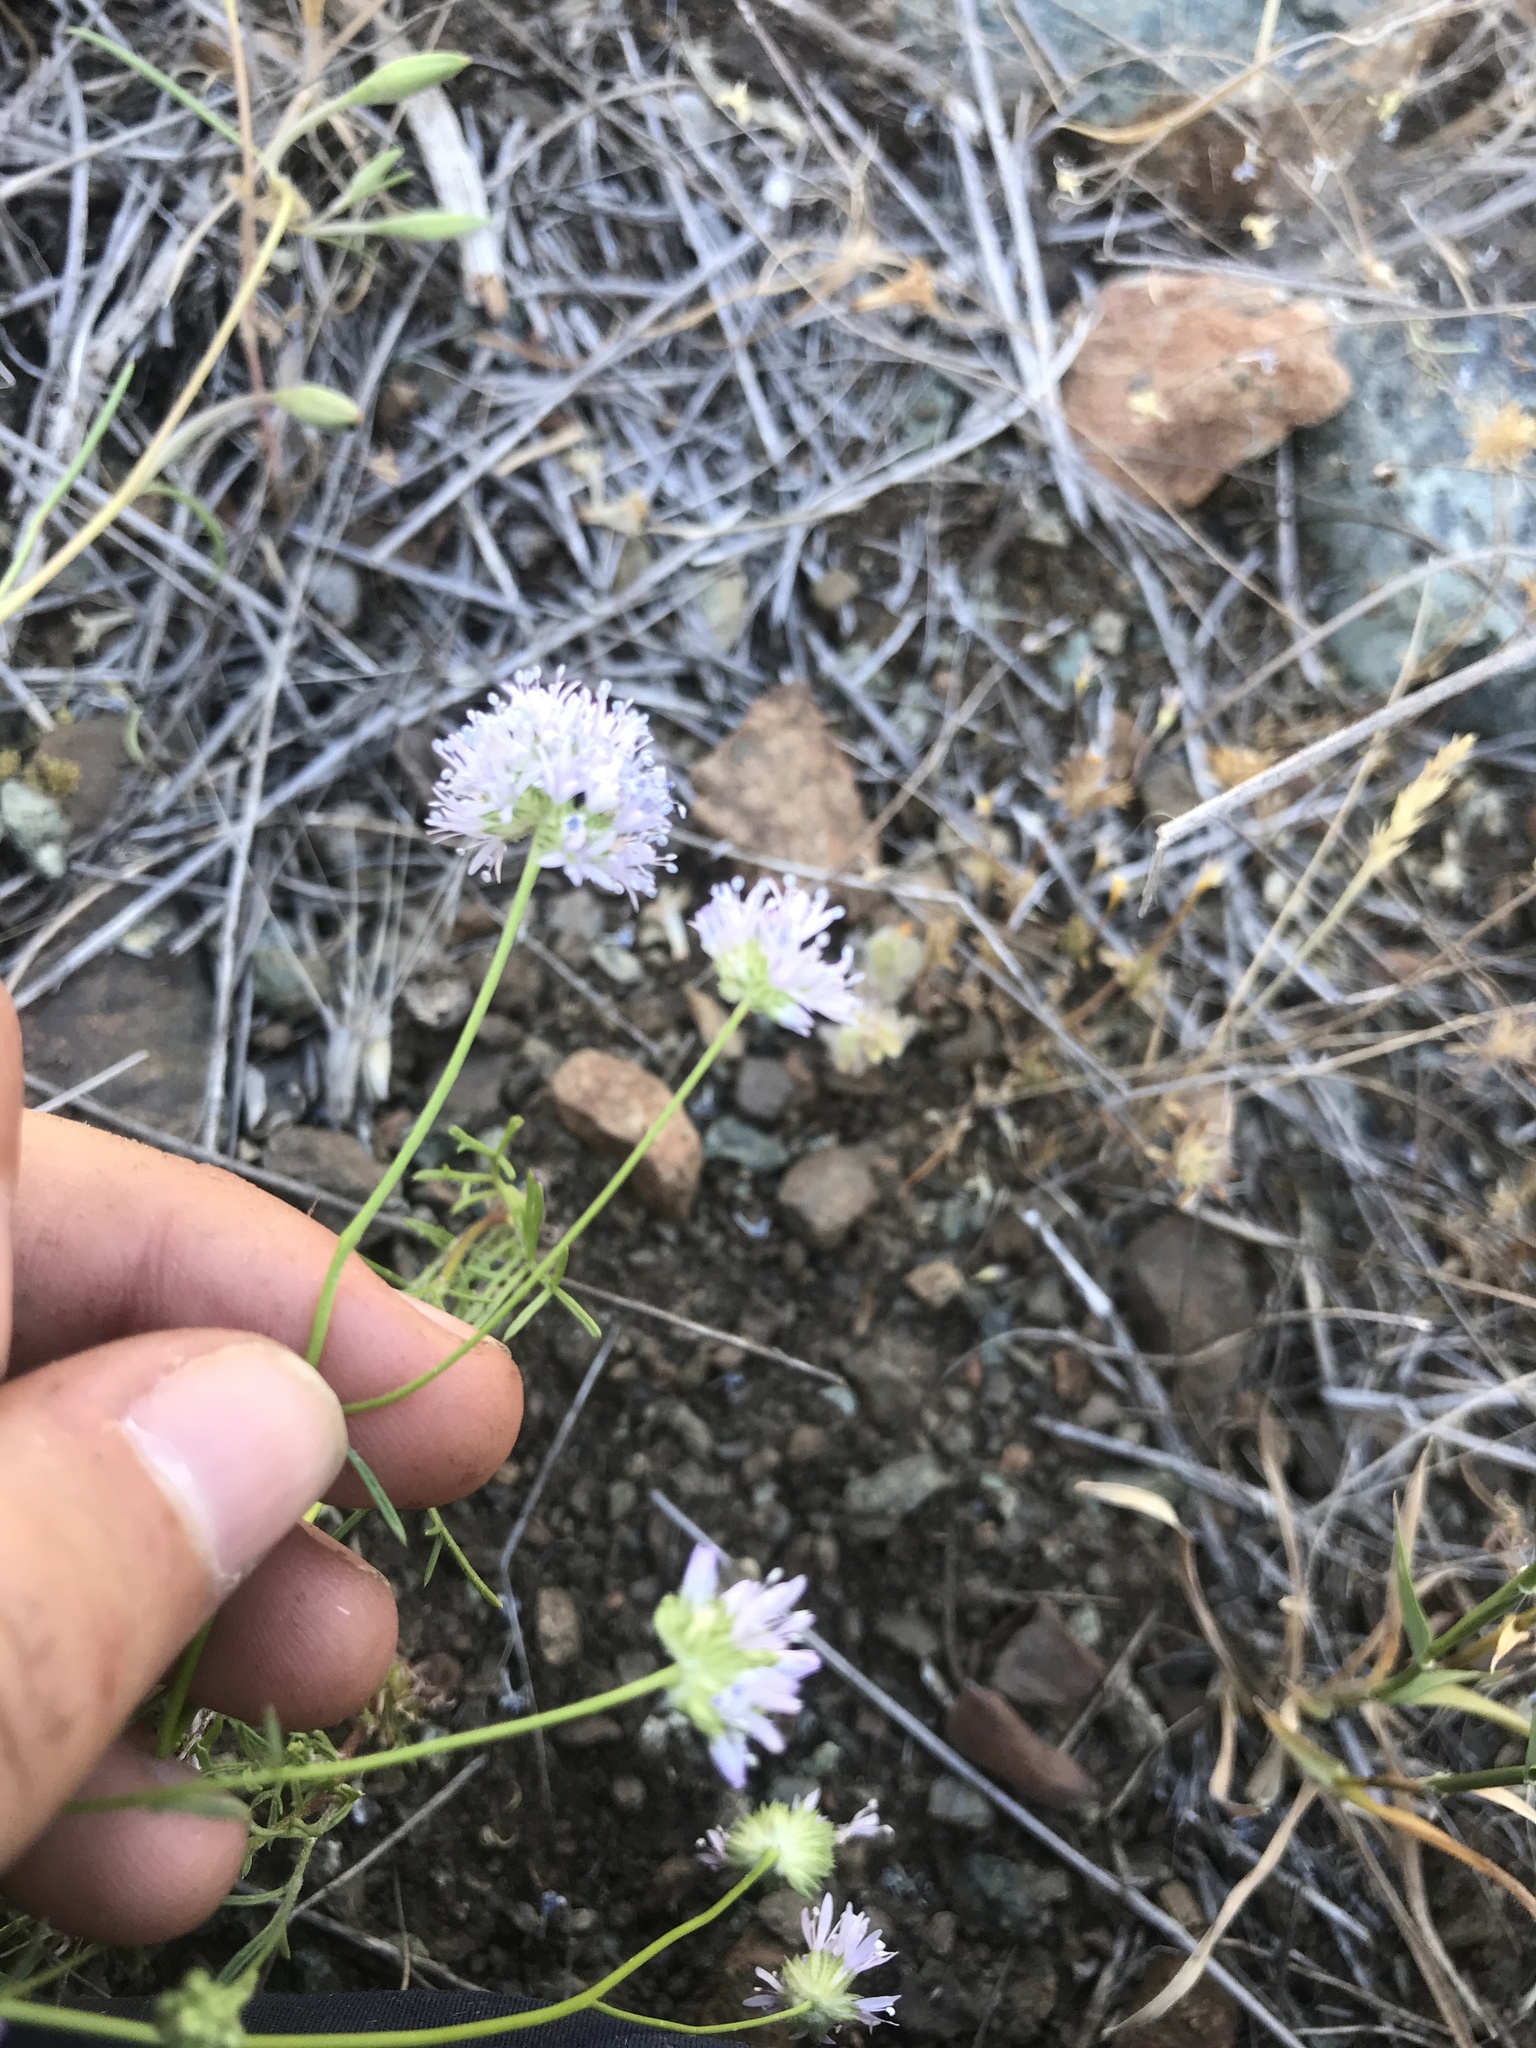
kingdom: Plantae
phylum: Tracheophyta
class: Magnoliopsida
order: Ericales
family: Polemoniaceae
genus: Gilia
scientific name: Gilia capitata
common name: Bluehead gilia
